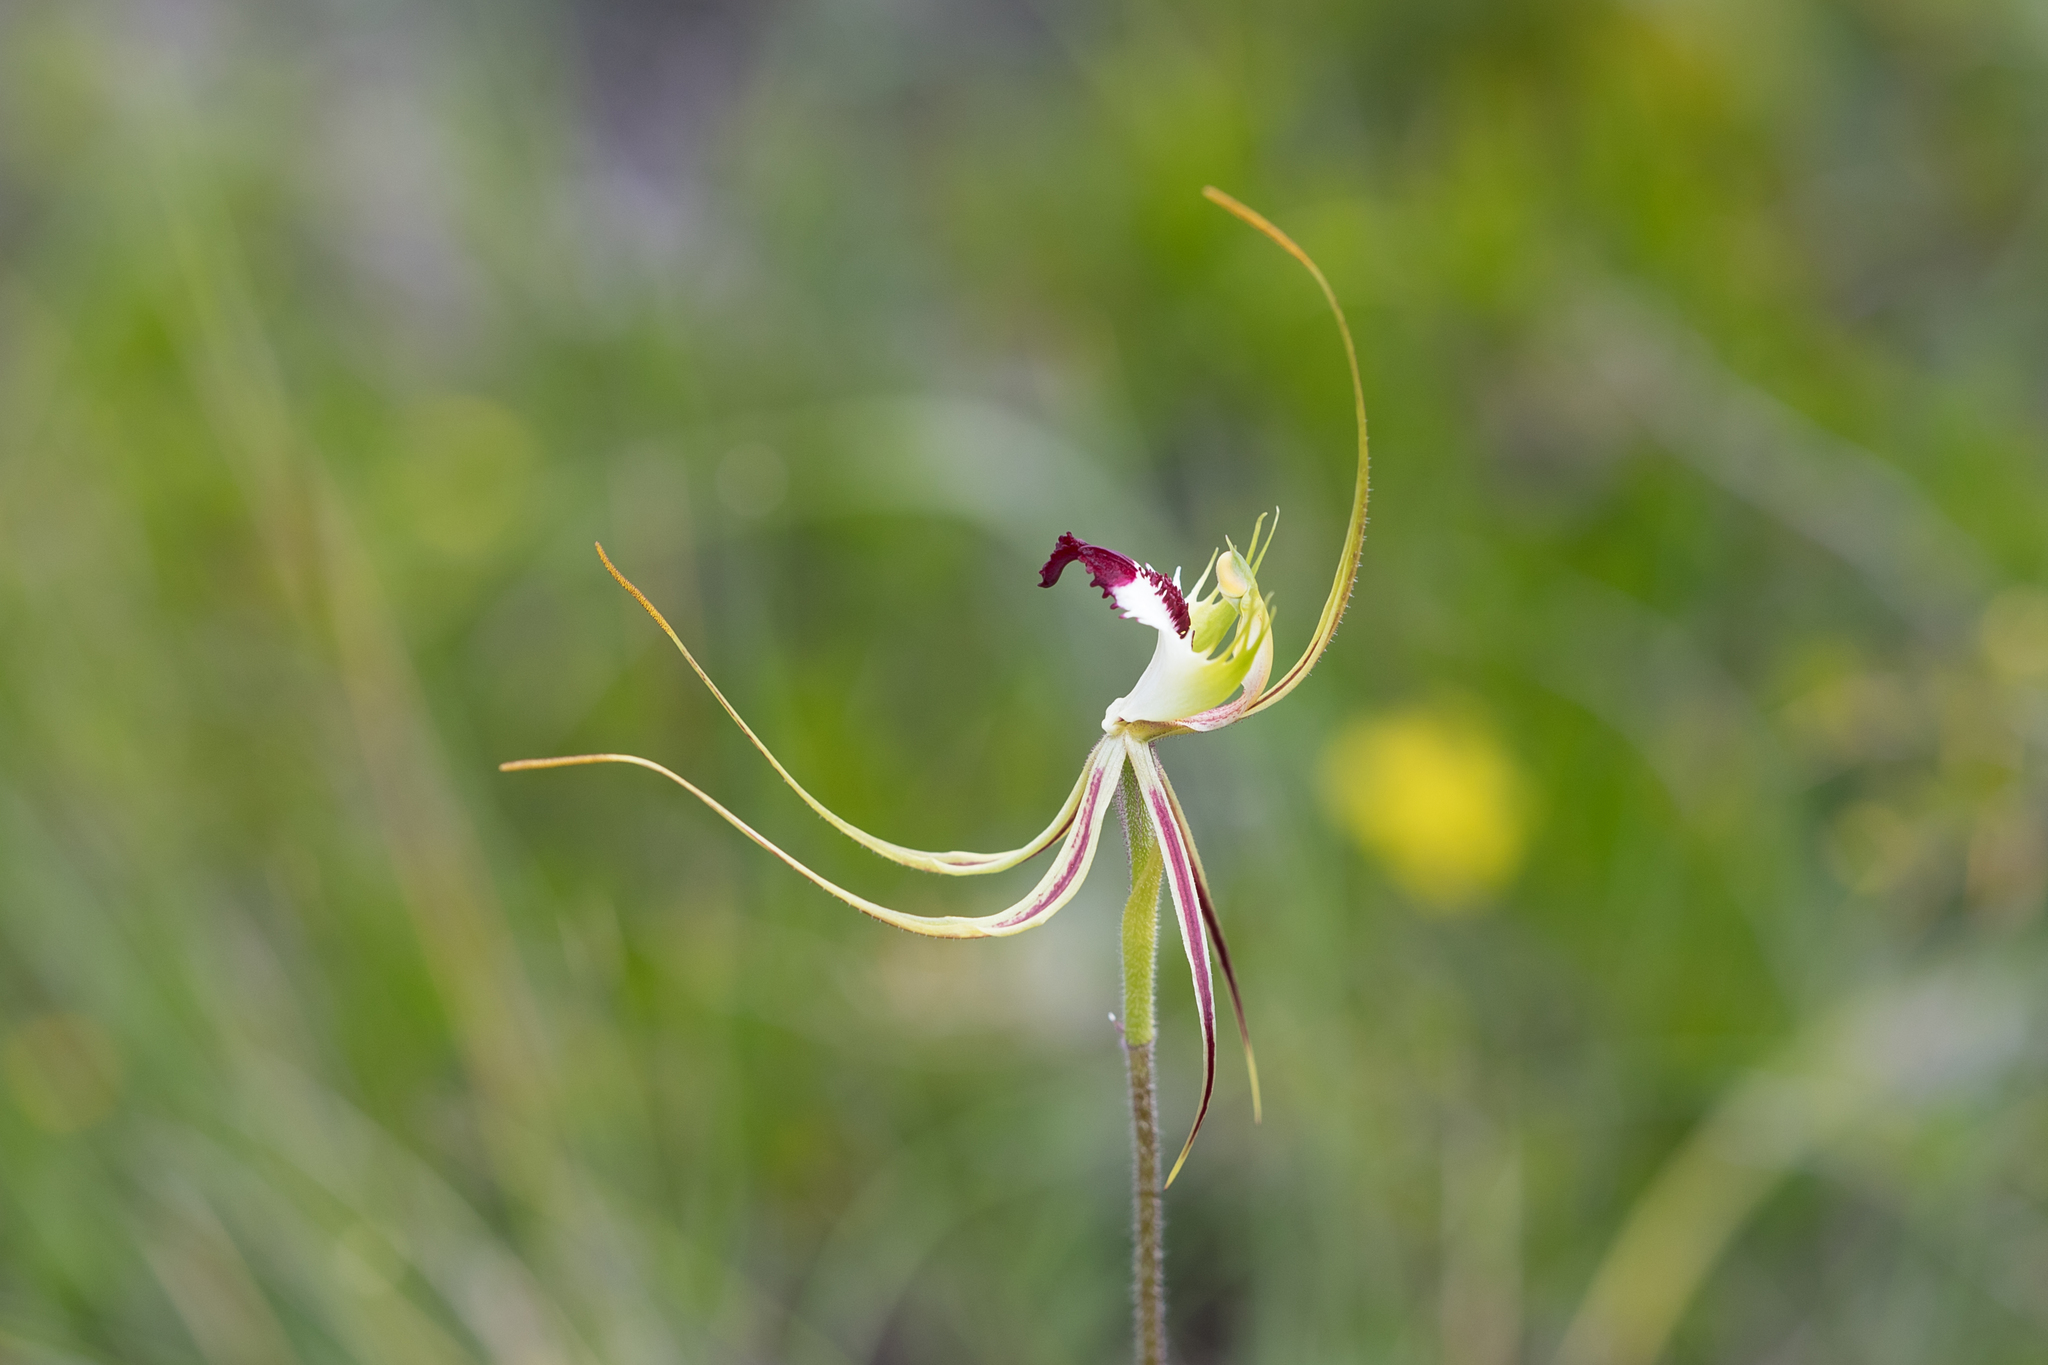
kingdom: Plantae
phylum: Tracheophyta
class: Liliopsida
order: Asparagales
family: Orchidaceae
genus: Caladenia
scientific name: Caladenia tentaculata
